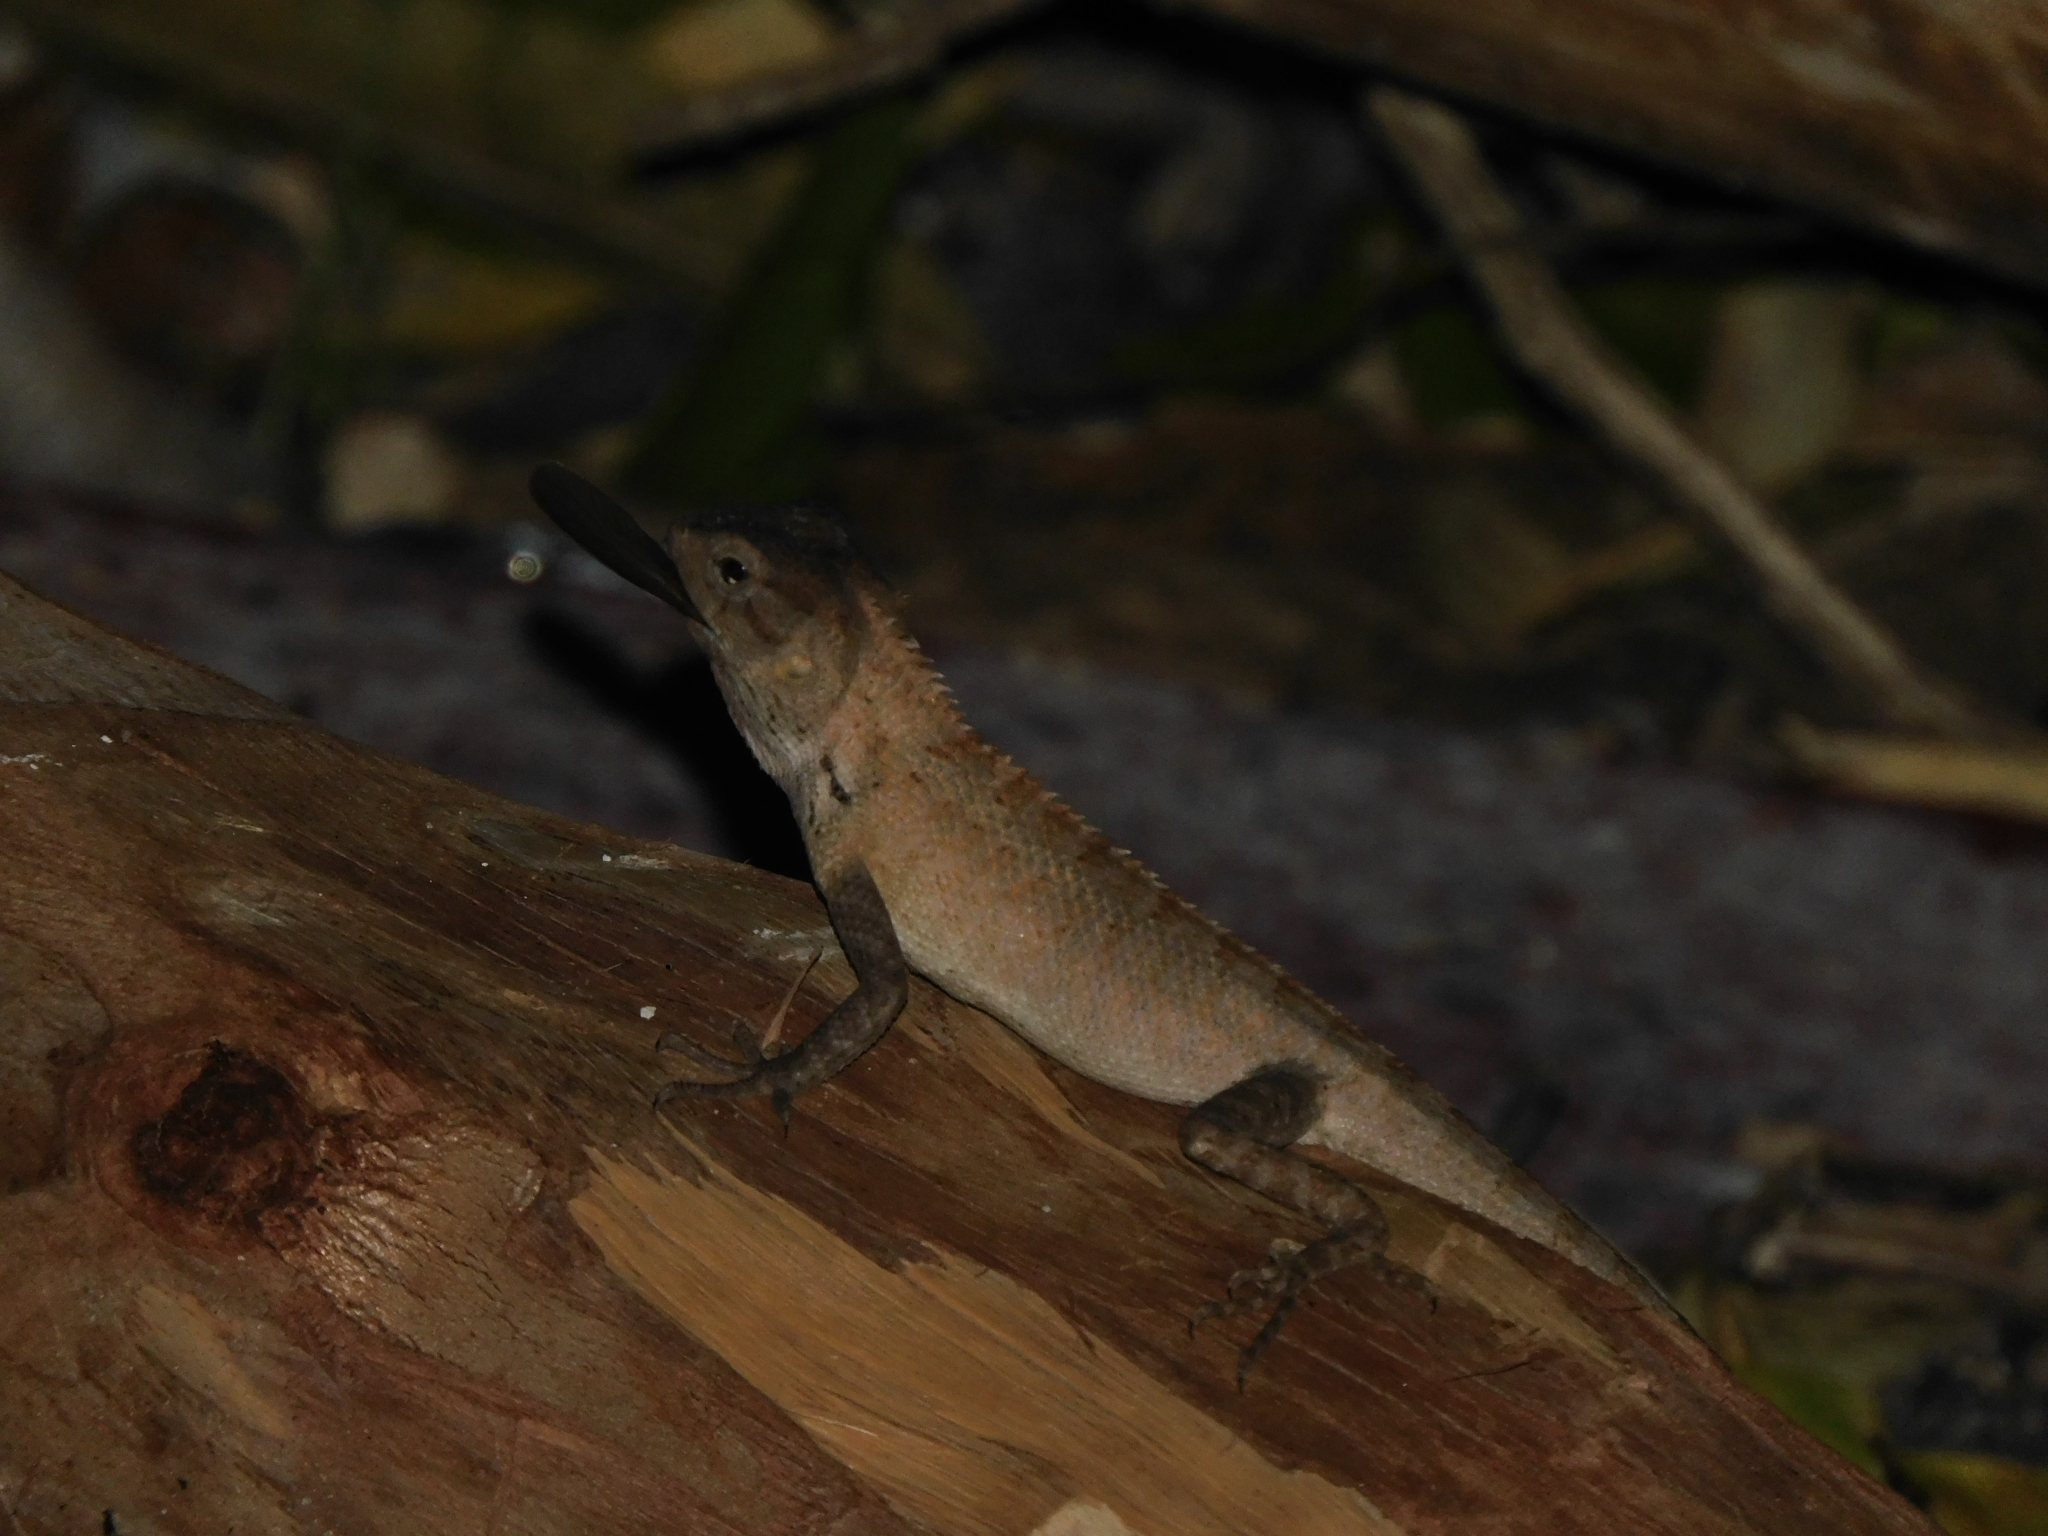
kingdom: Animalia
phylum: Chordata
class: Squamata
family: Agamidae
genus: Calotes
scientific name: Calotes versicolor
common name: Oriental garden lizard
